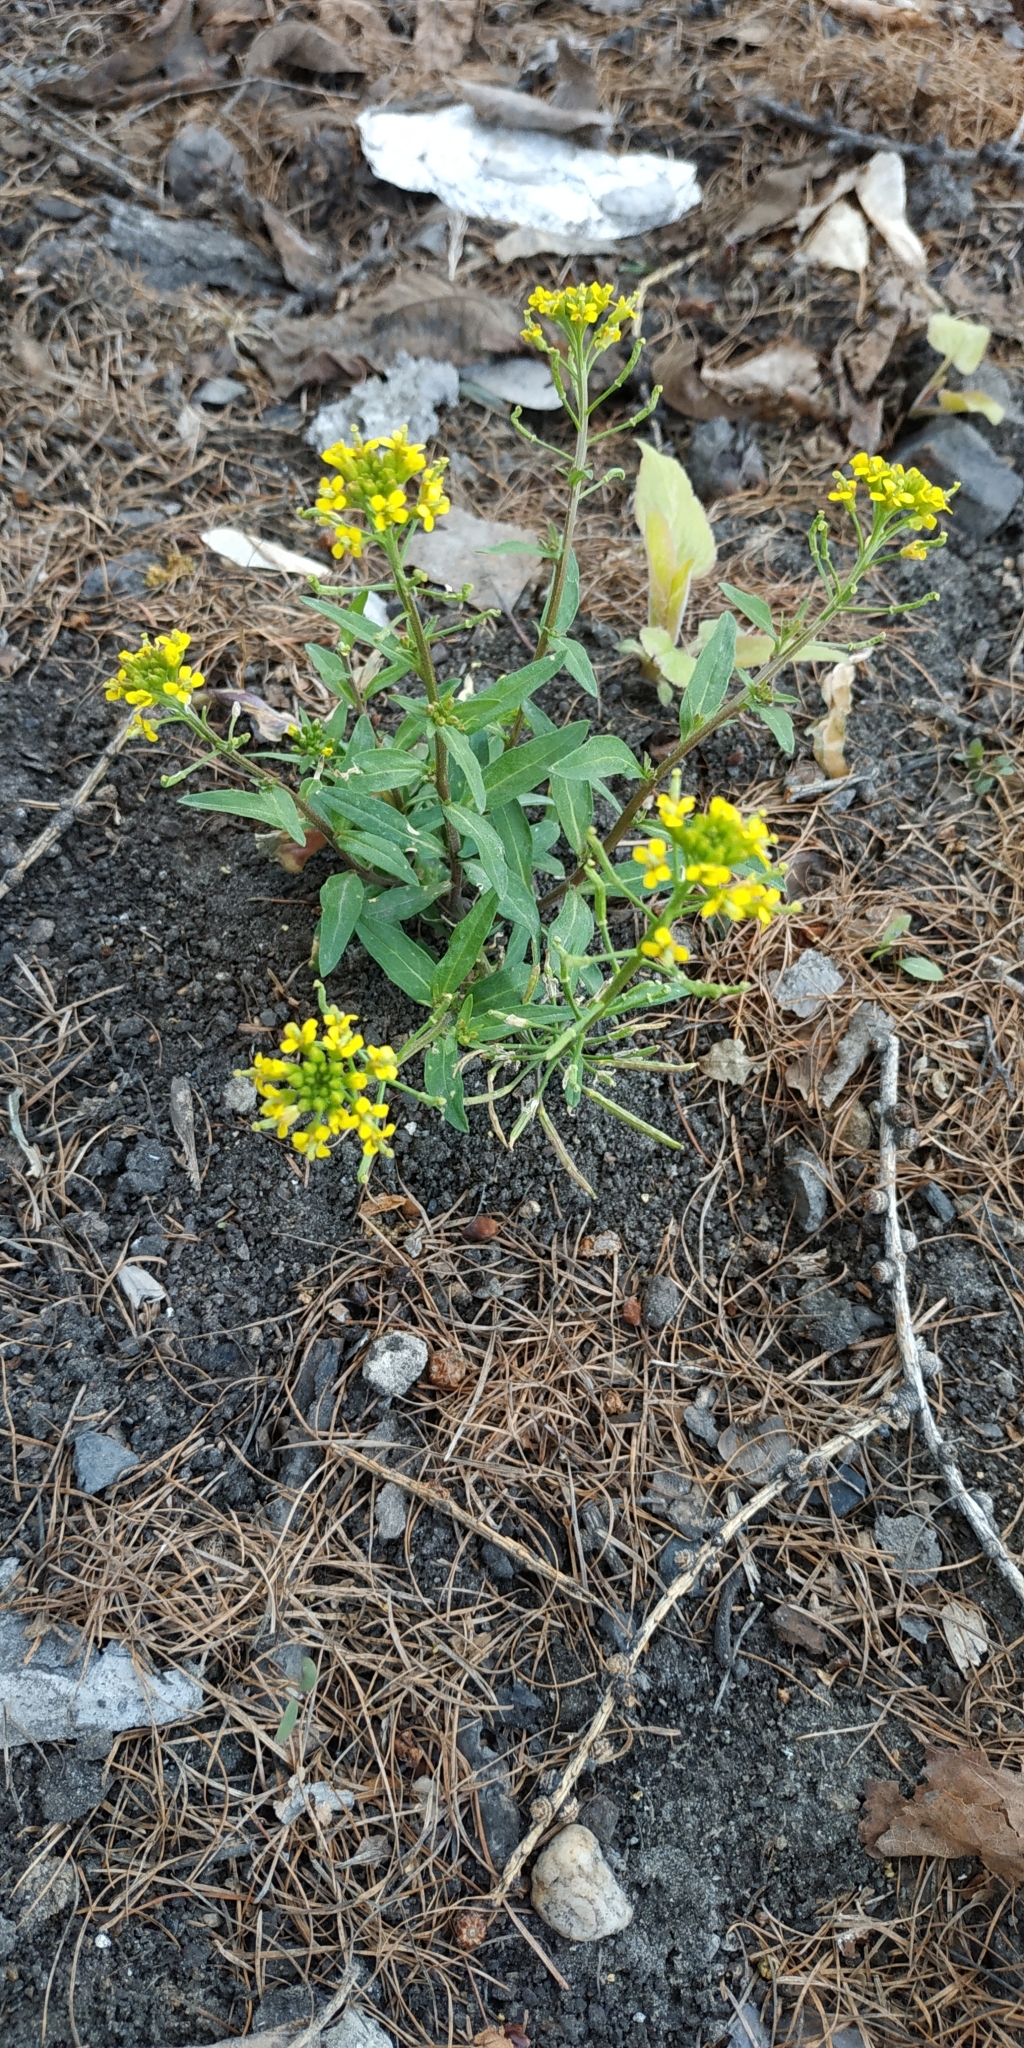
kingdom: Plantae
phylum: Tracheophyta
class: Magnoliopsida
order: Brassicales
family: Brassicaceae
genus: Erysimum
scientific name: Erysimum cheiranthoides
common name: Treacle mustard
